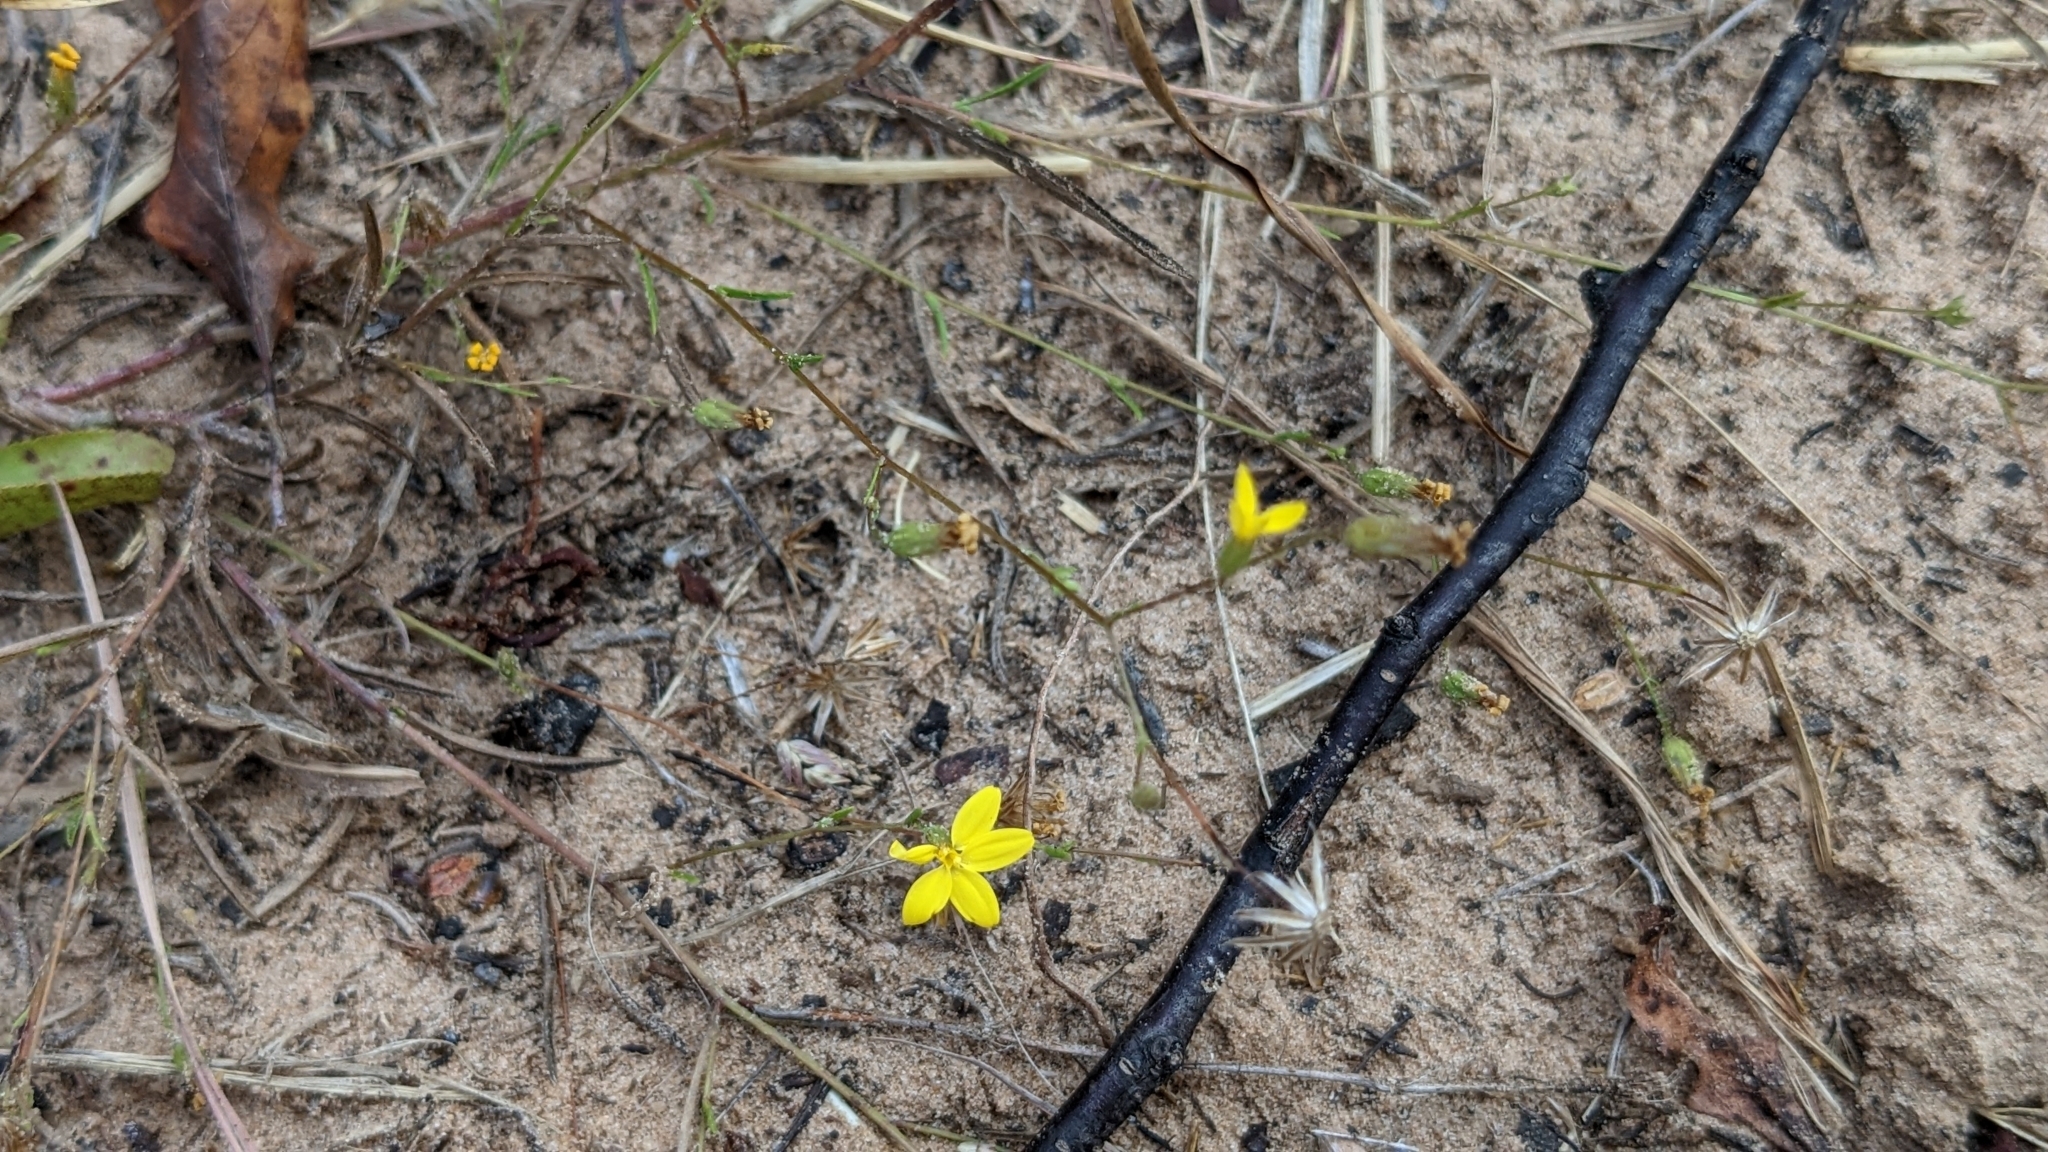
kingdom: Plantae
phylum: Tracheophyta
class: Magnoliopsida
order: Asterales
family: Asteraceae
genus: Croptilon
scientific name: Croptilon divaricatum
